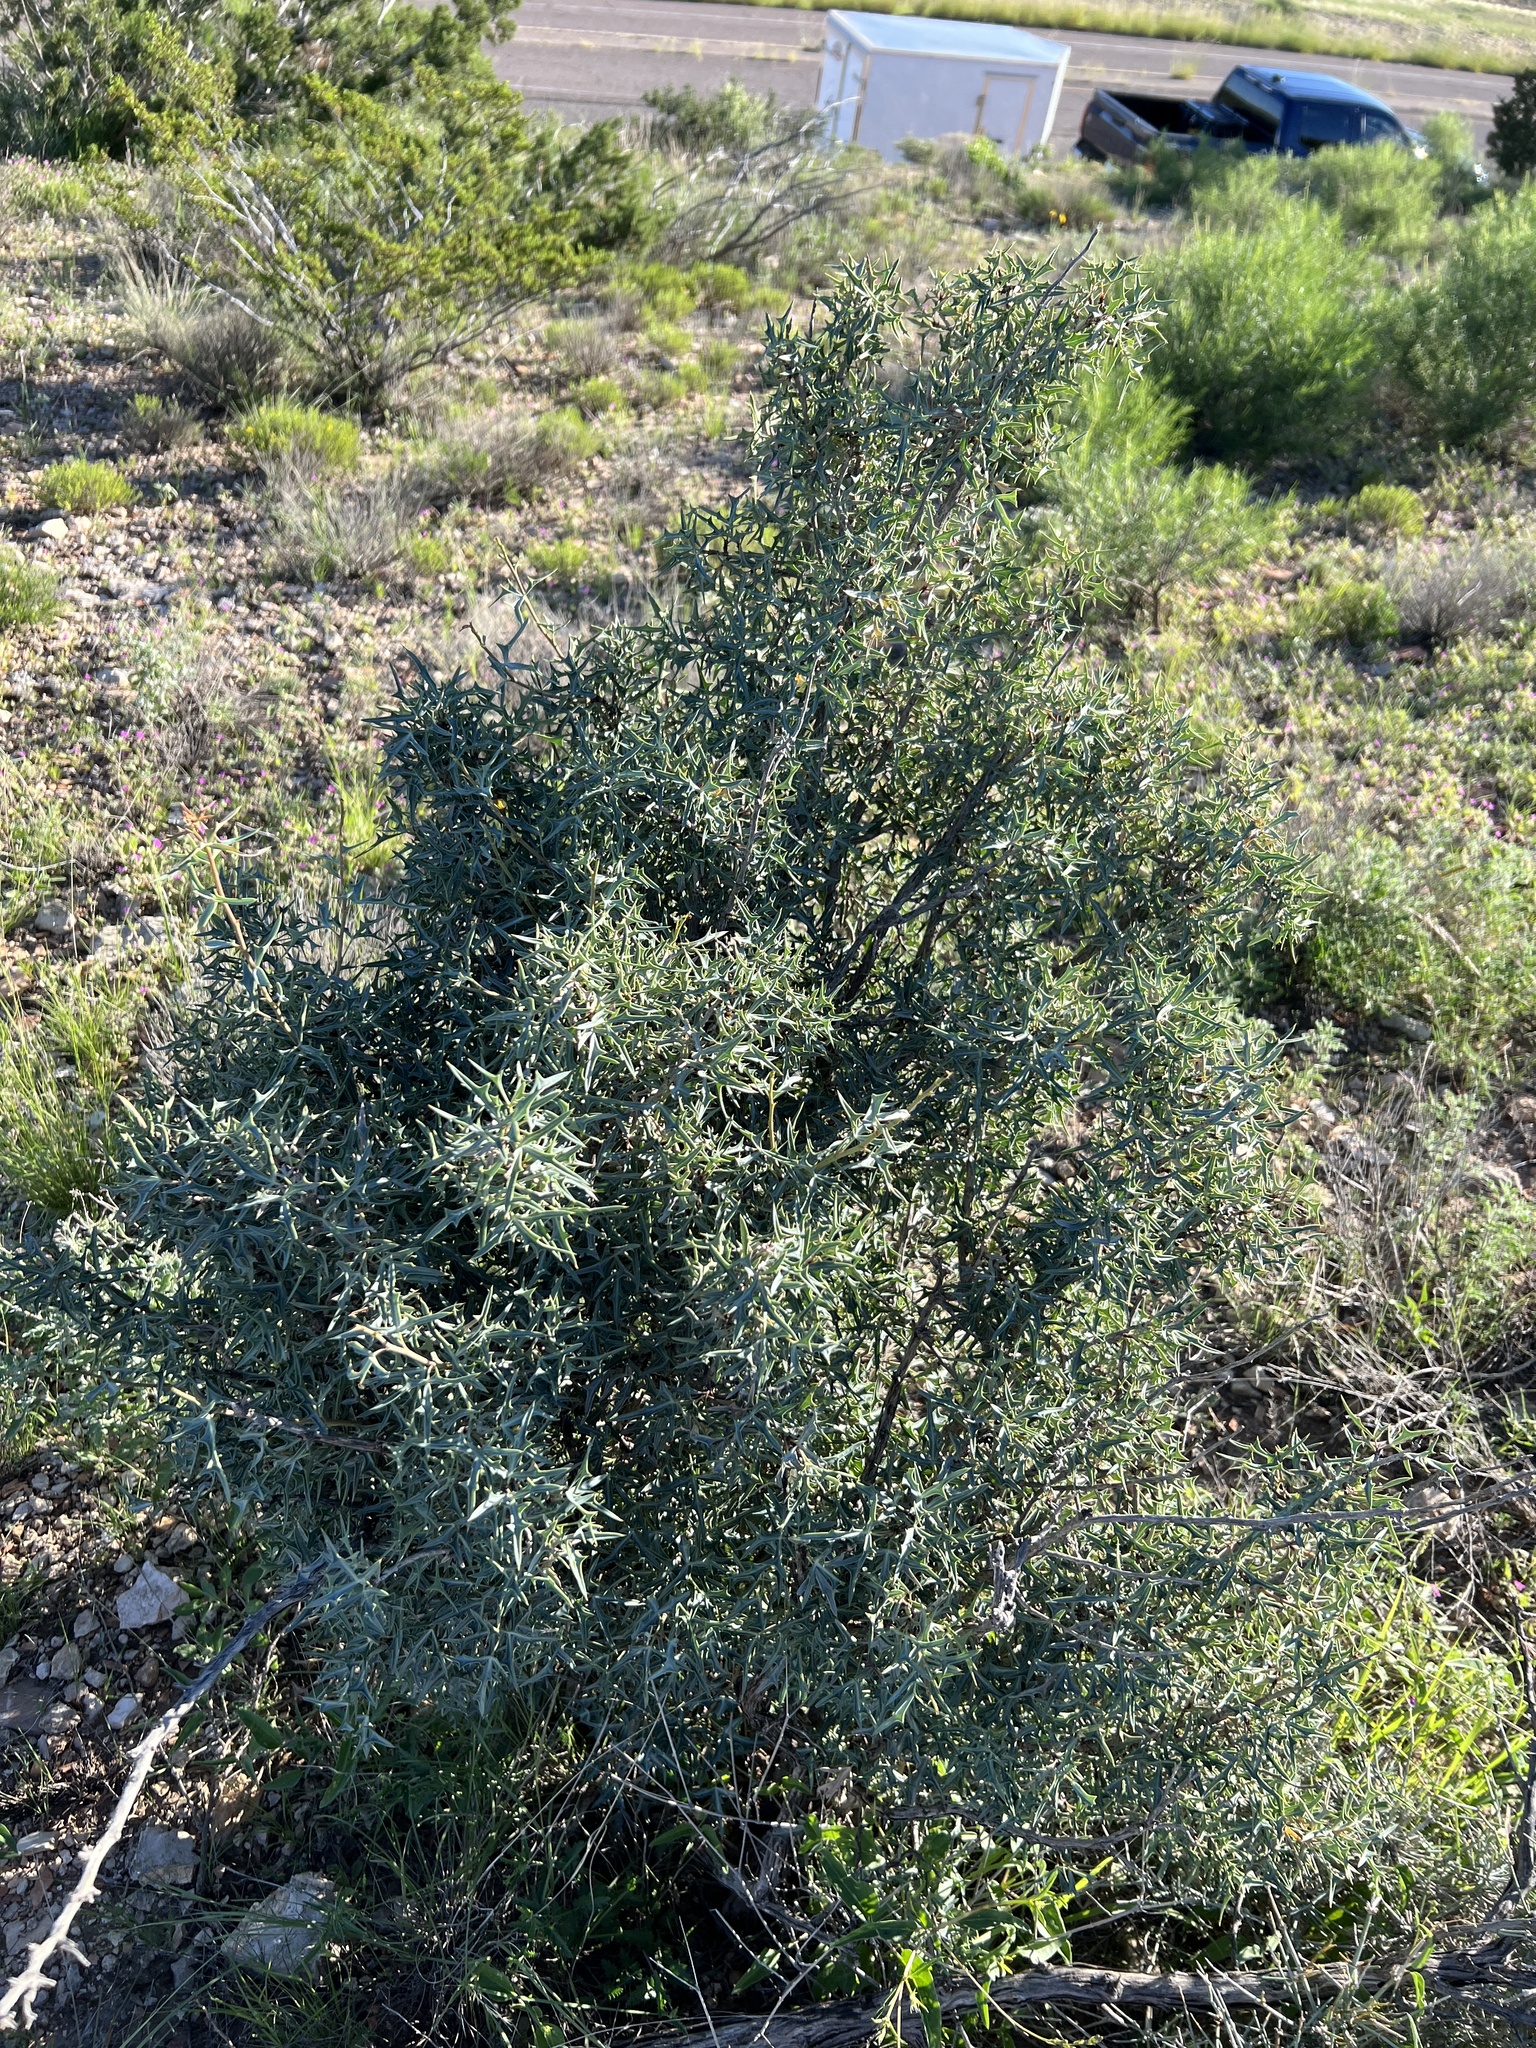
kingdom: Plantae
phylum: Tracheophyta
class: Magnoliopsida
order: Ranunculales
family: Berberidaceae
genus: Alloberberis
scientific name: Alloberberis trifoliolata
